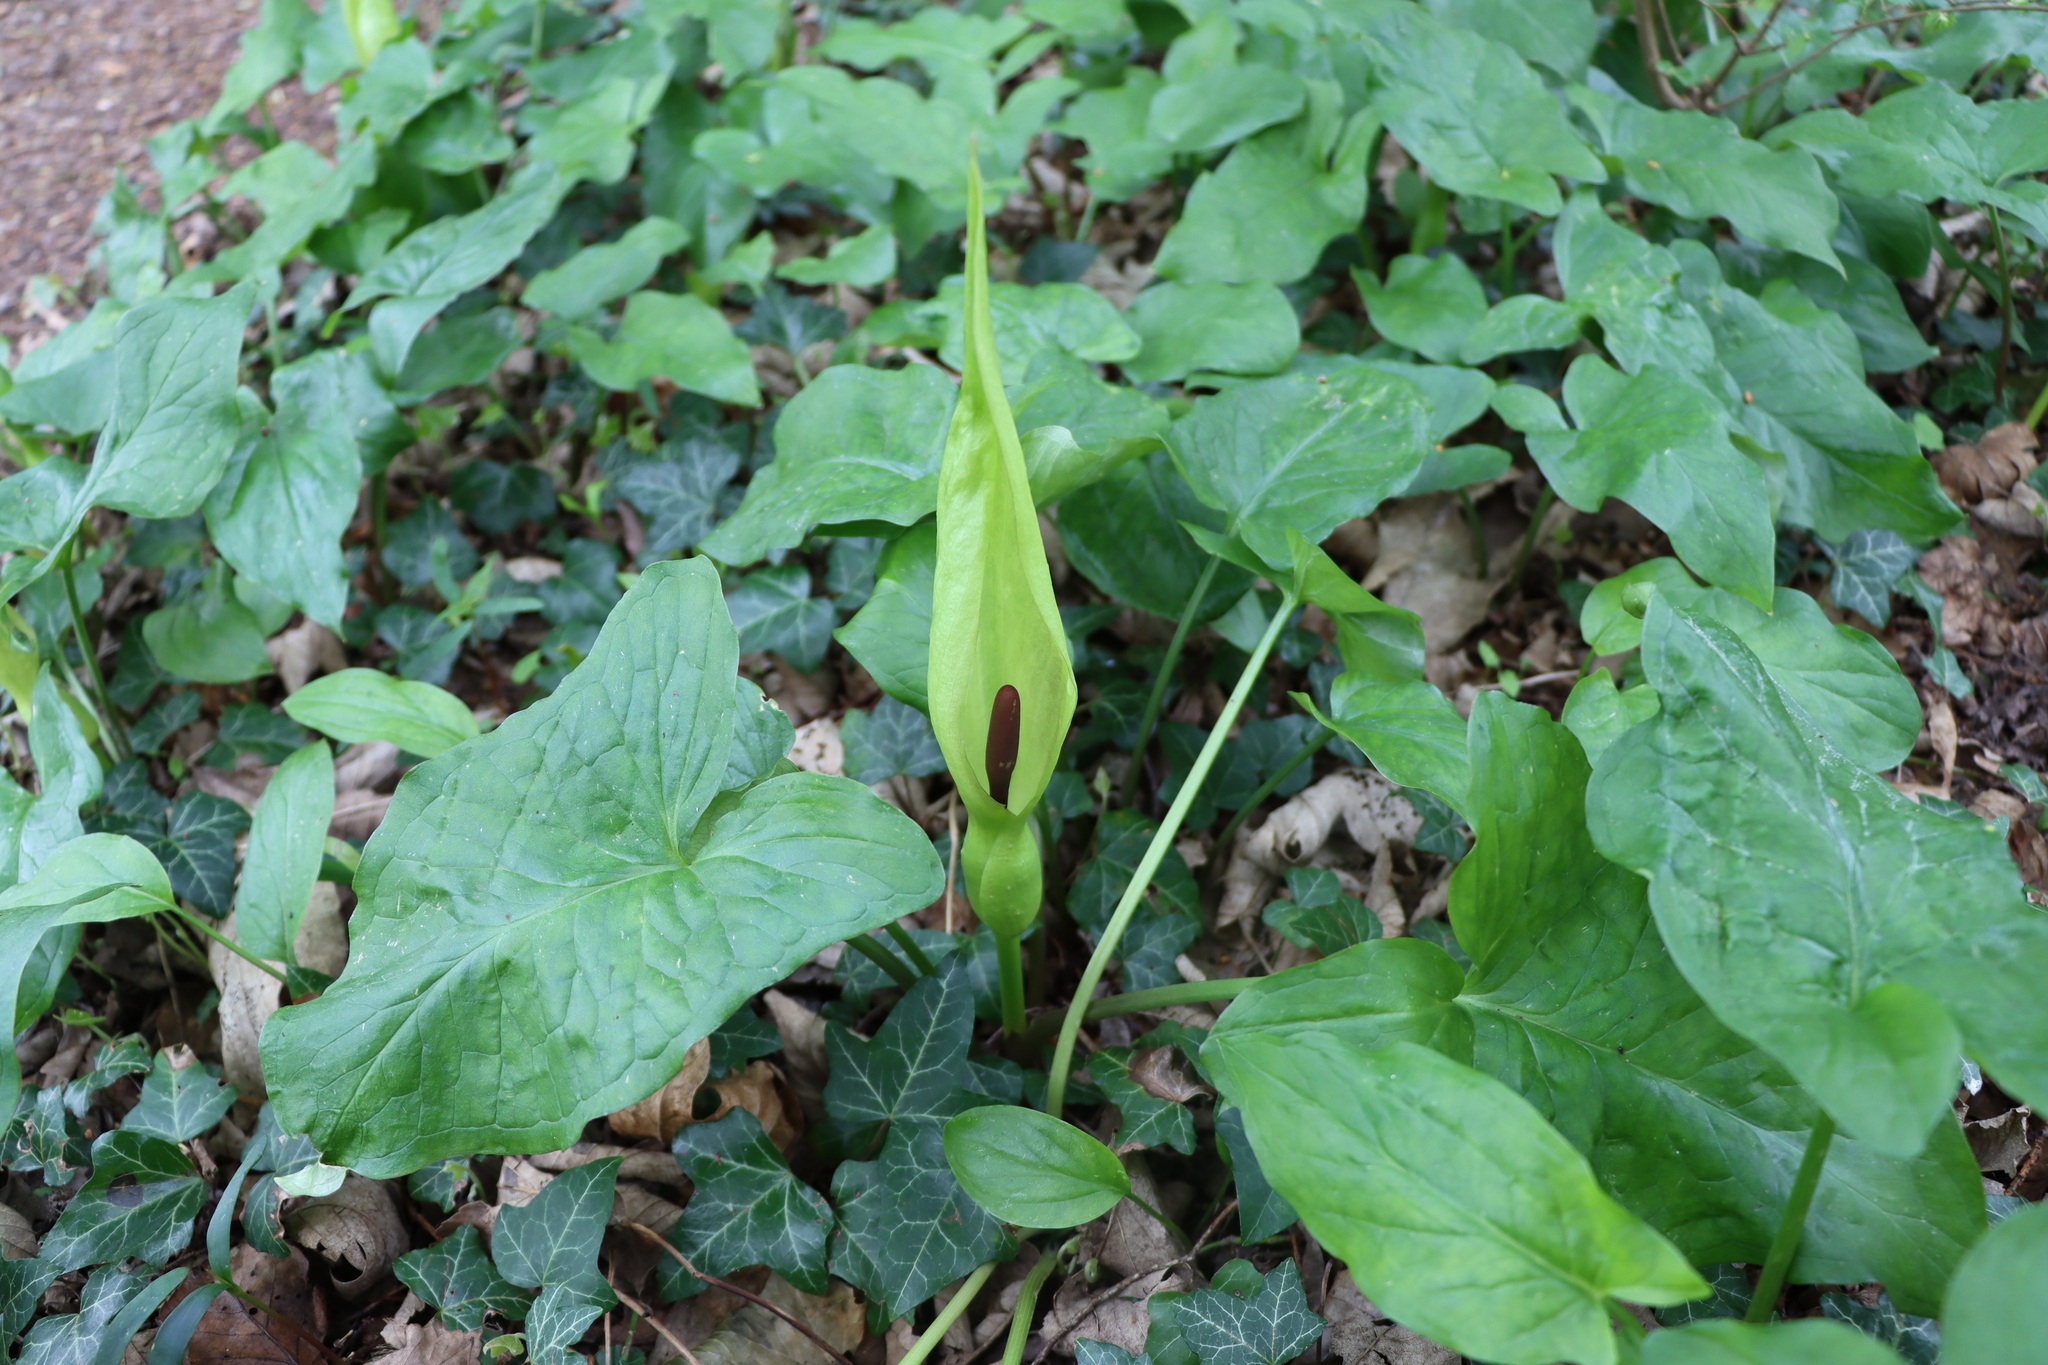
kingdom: Plantae
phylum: Tracheophyta
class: Liliopsida
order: Alismatales
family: Araceae
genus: Arum
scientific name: Arum maculatum
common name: Lords-and-ladies
